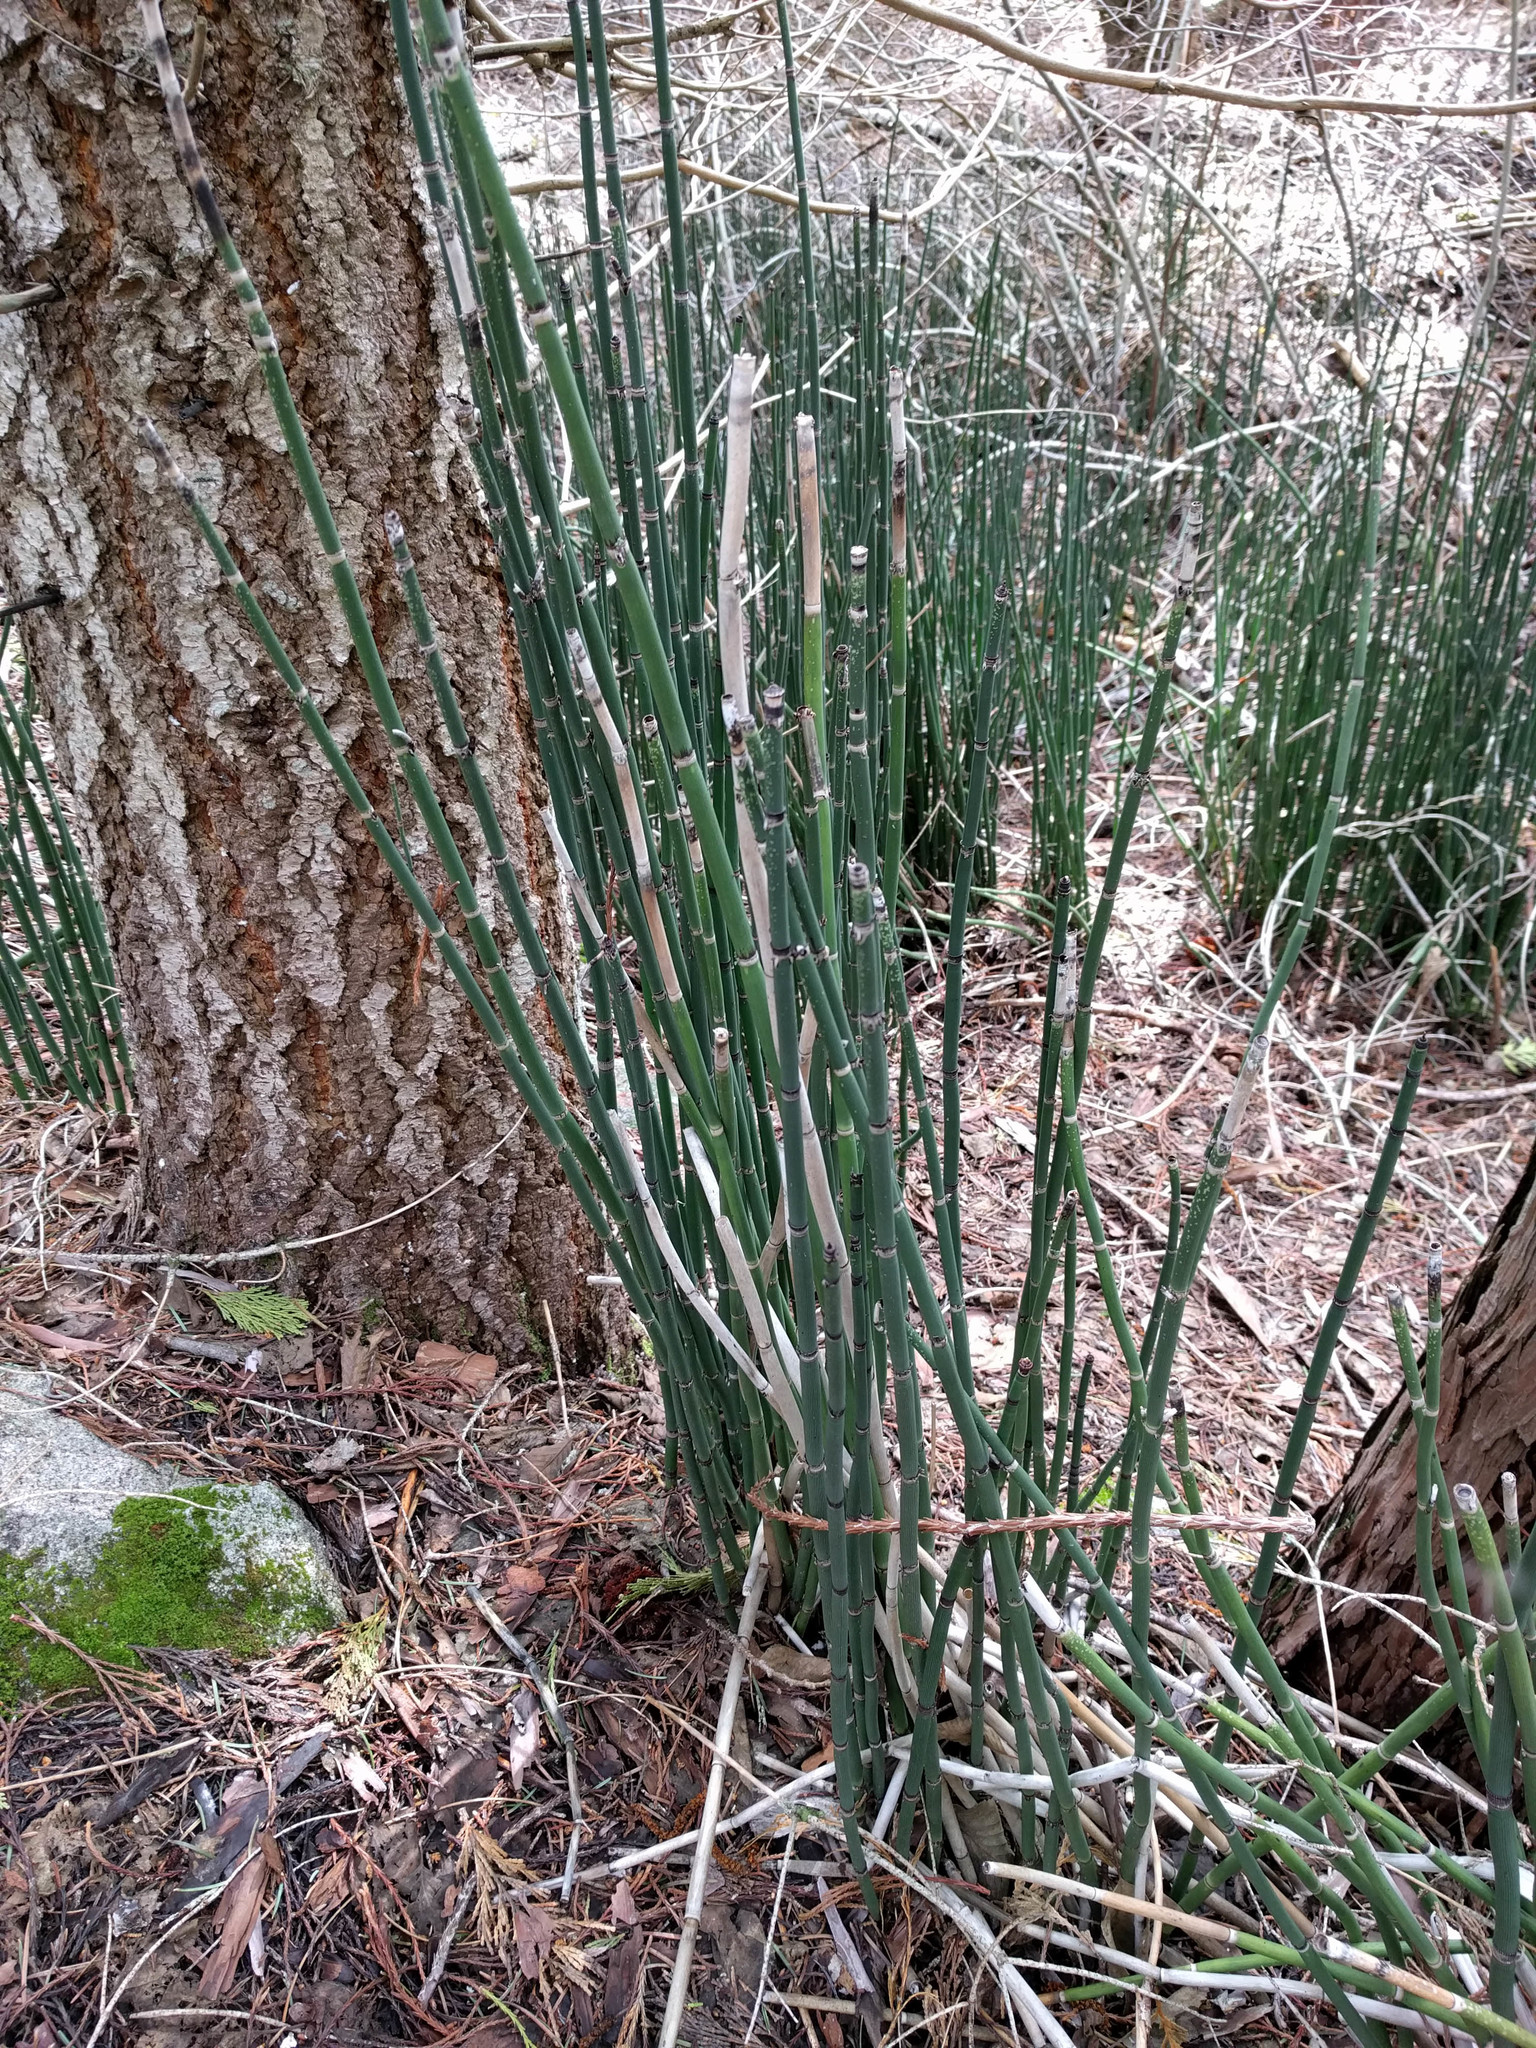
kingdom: Plantae
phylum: Tracheophyta
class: Polypodiopsida
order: Equisetales
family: Equisetaceae
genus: Equisetum
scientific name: Equisetum hyemale
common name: Rough horsetail
